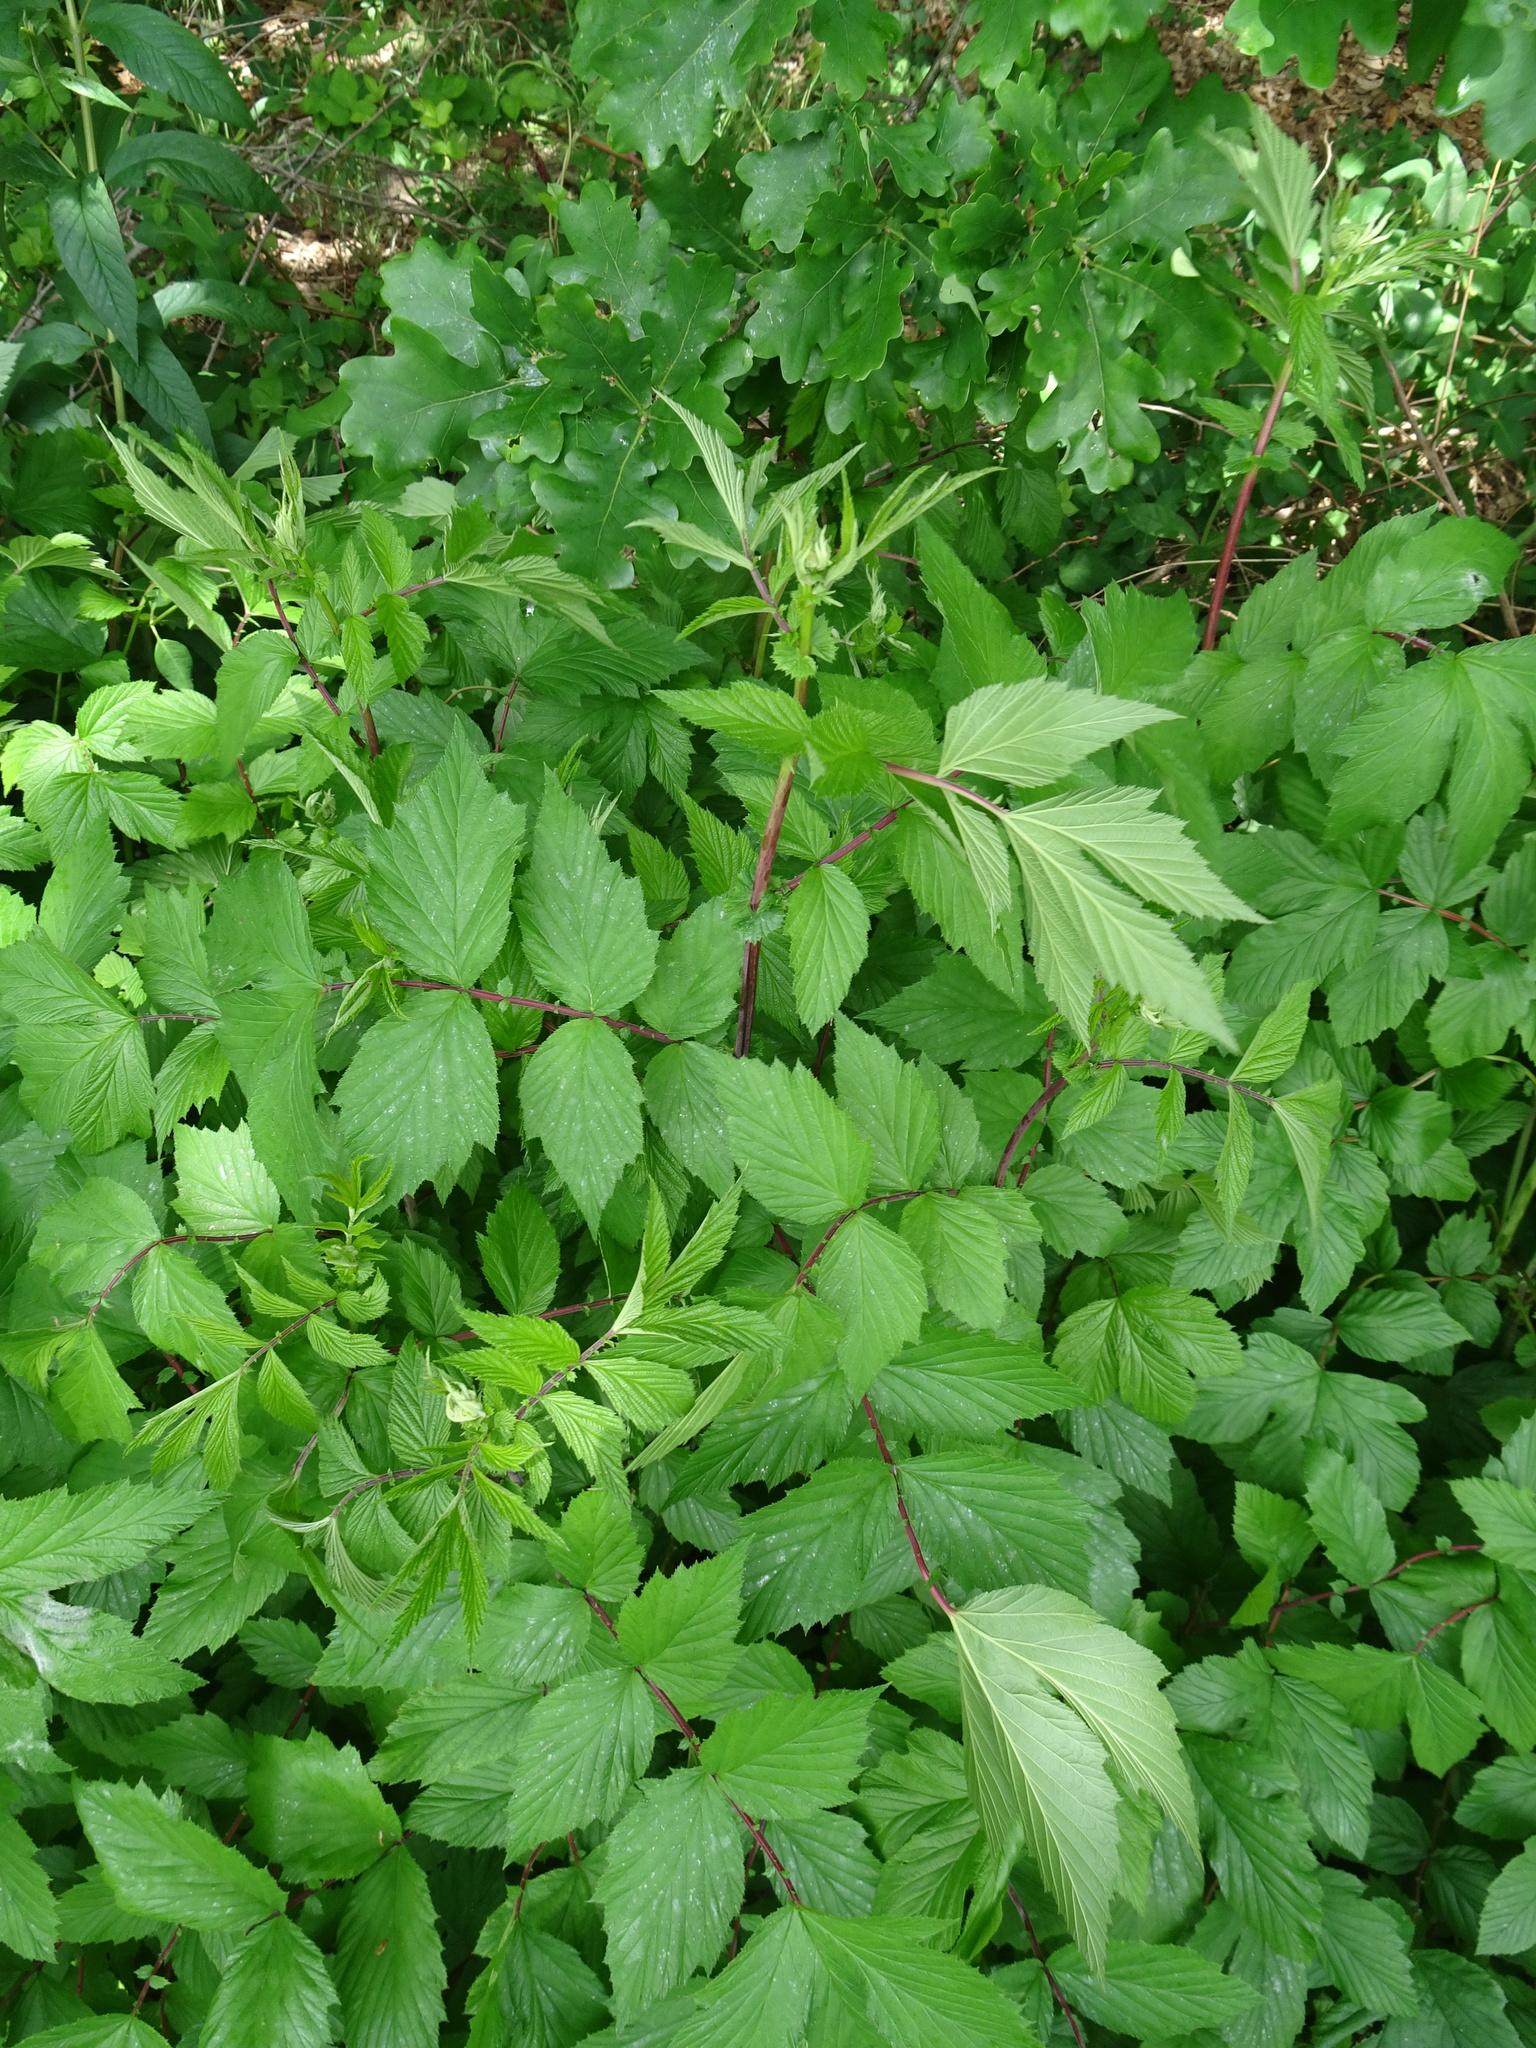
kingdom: Plantae
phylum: Tracheophyta
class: Magnoliopsida
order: Rosales
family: Rosaceae
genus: Filipendula
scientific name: Filipendula ulmaria
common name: Meadowsweet
